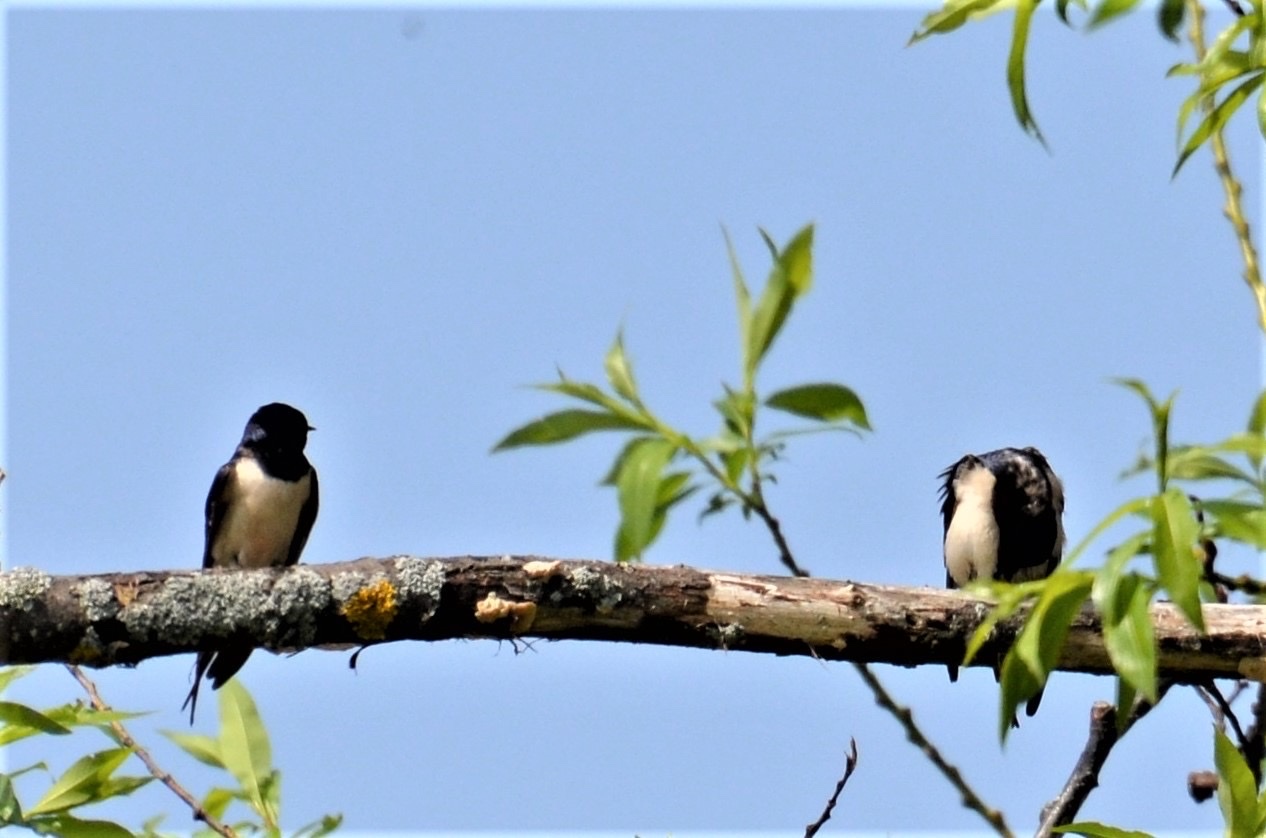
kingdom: Animalia
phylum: Chordata
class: Aves
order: Passeriformes
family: Hirundinidae
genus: Hirundo
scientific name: Hirundo rustica
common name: Barn swallow
